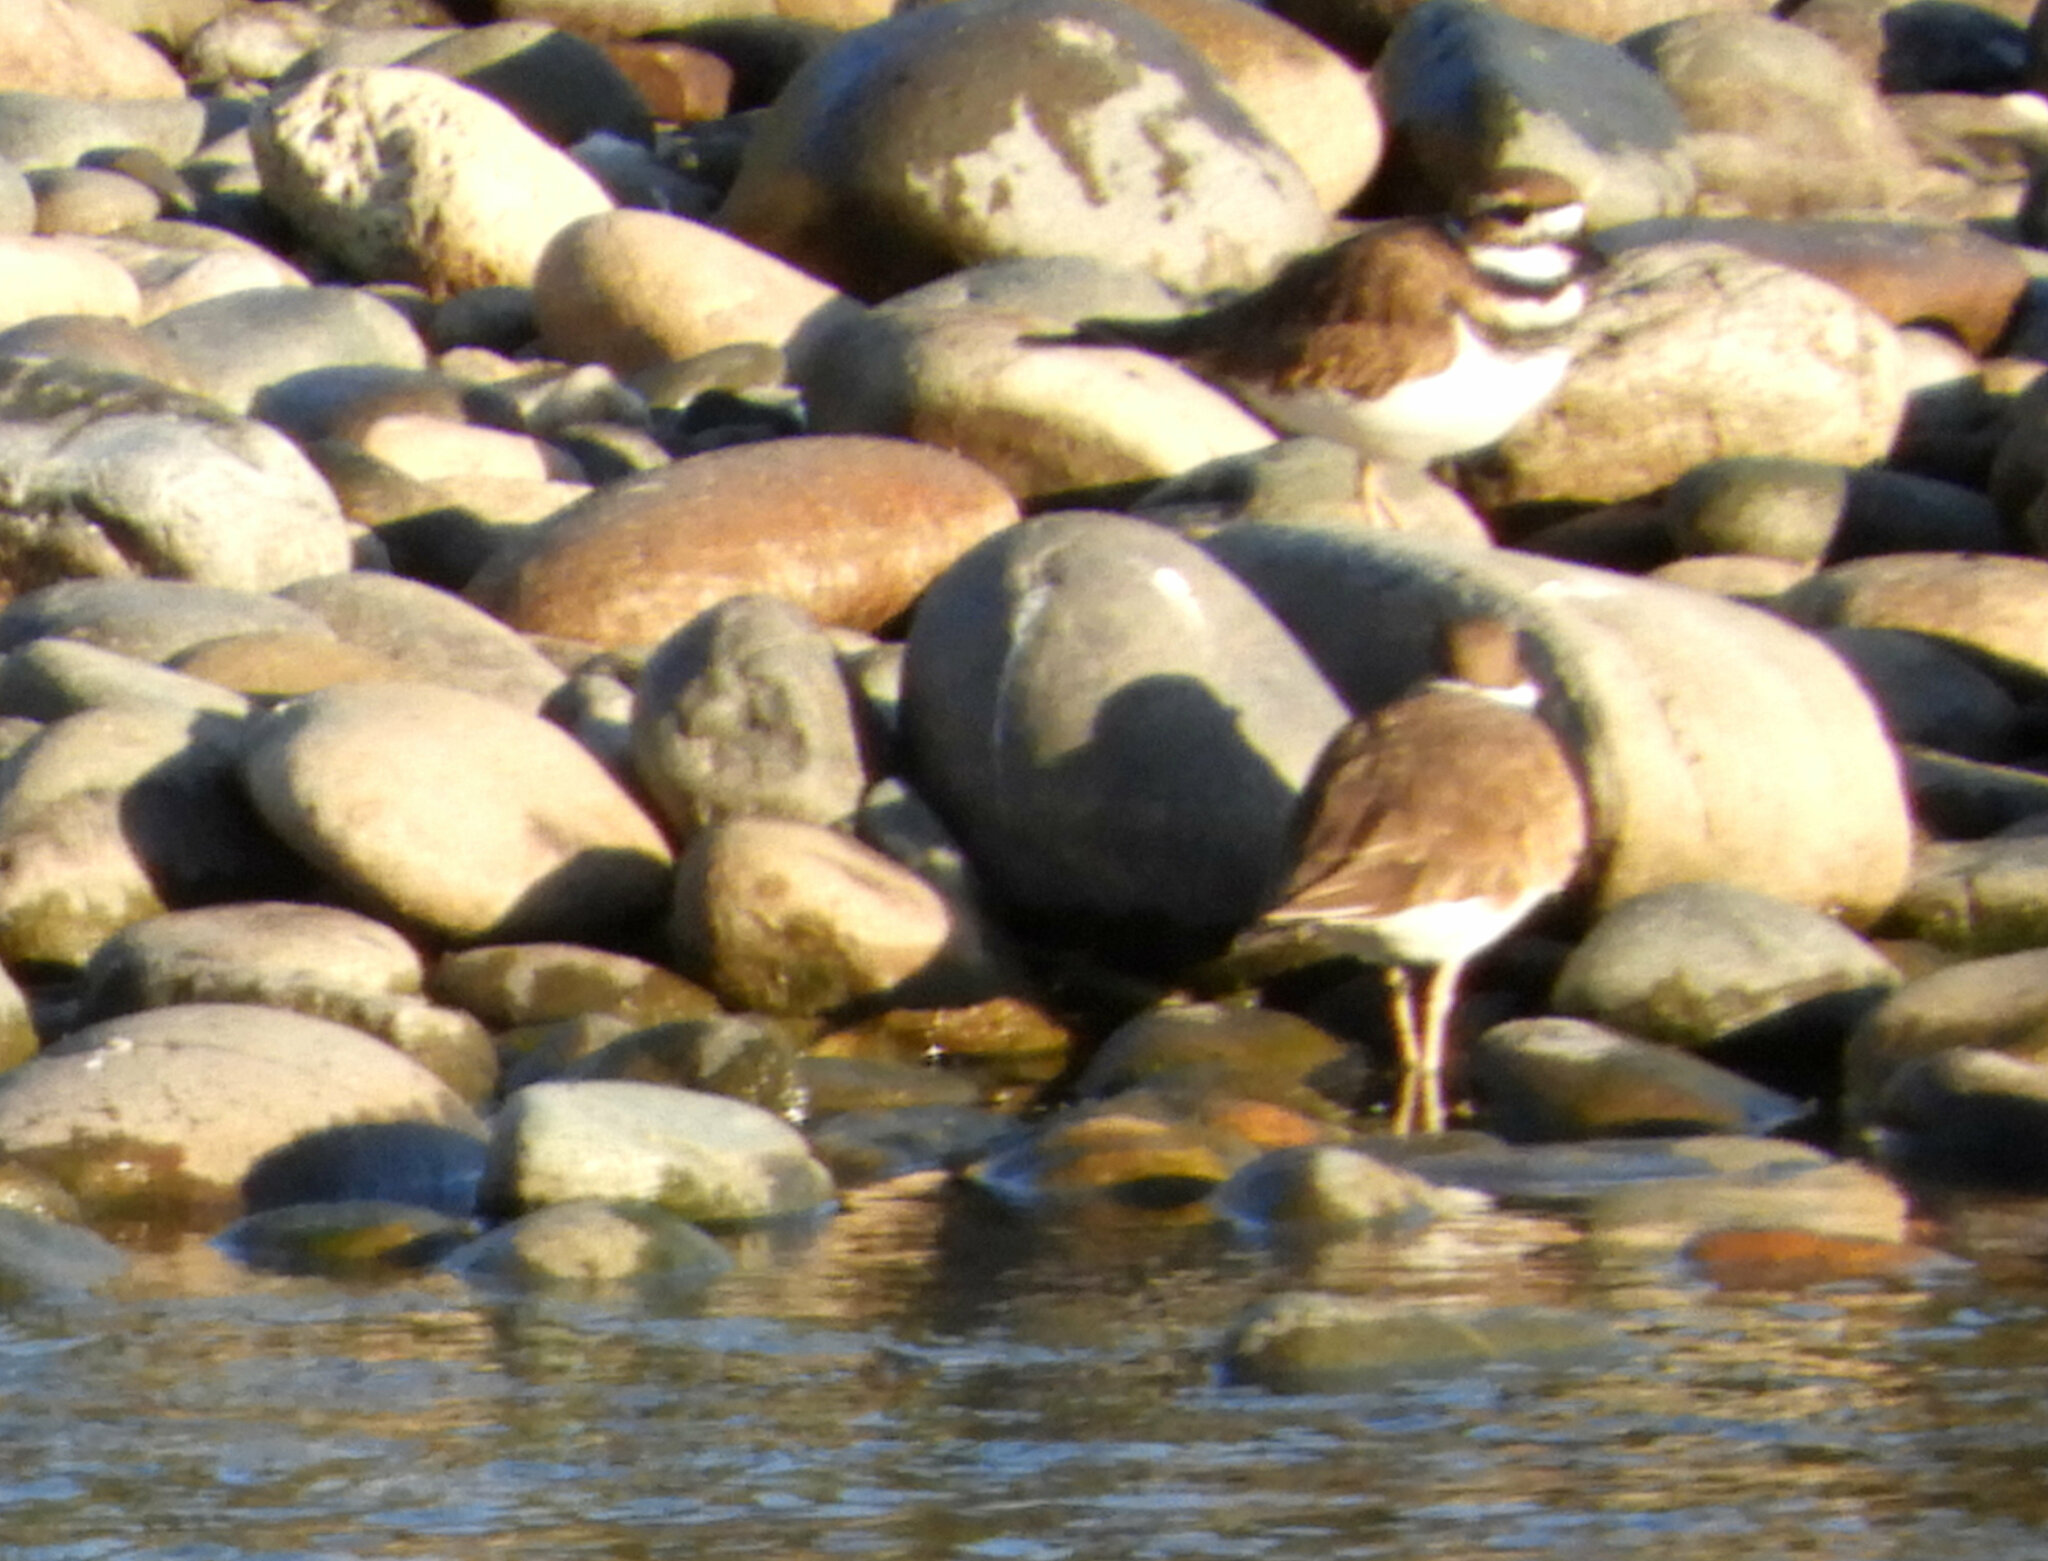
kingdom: Animalia
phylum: Chordata
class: Aves
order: Charadriiformes
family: Charadriidae
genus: Charadrius
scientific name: Charadrius vociferus
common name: Killdeer
